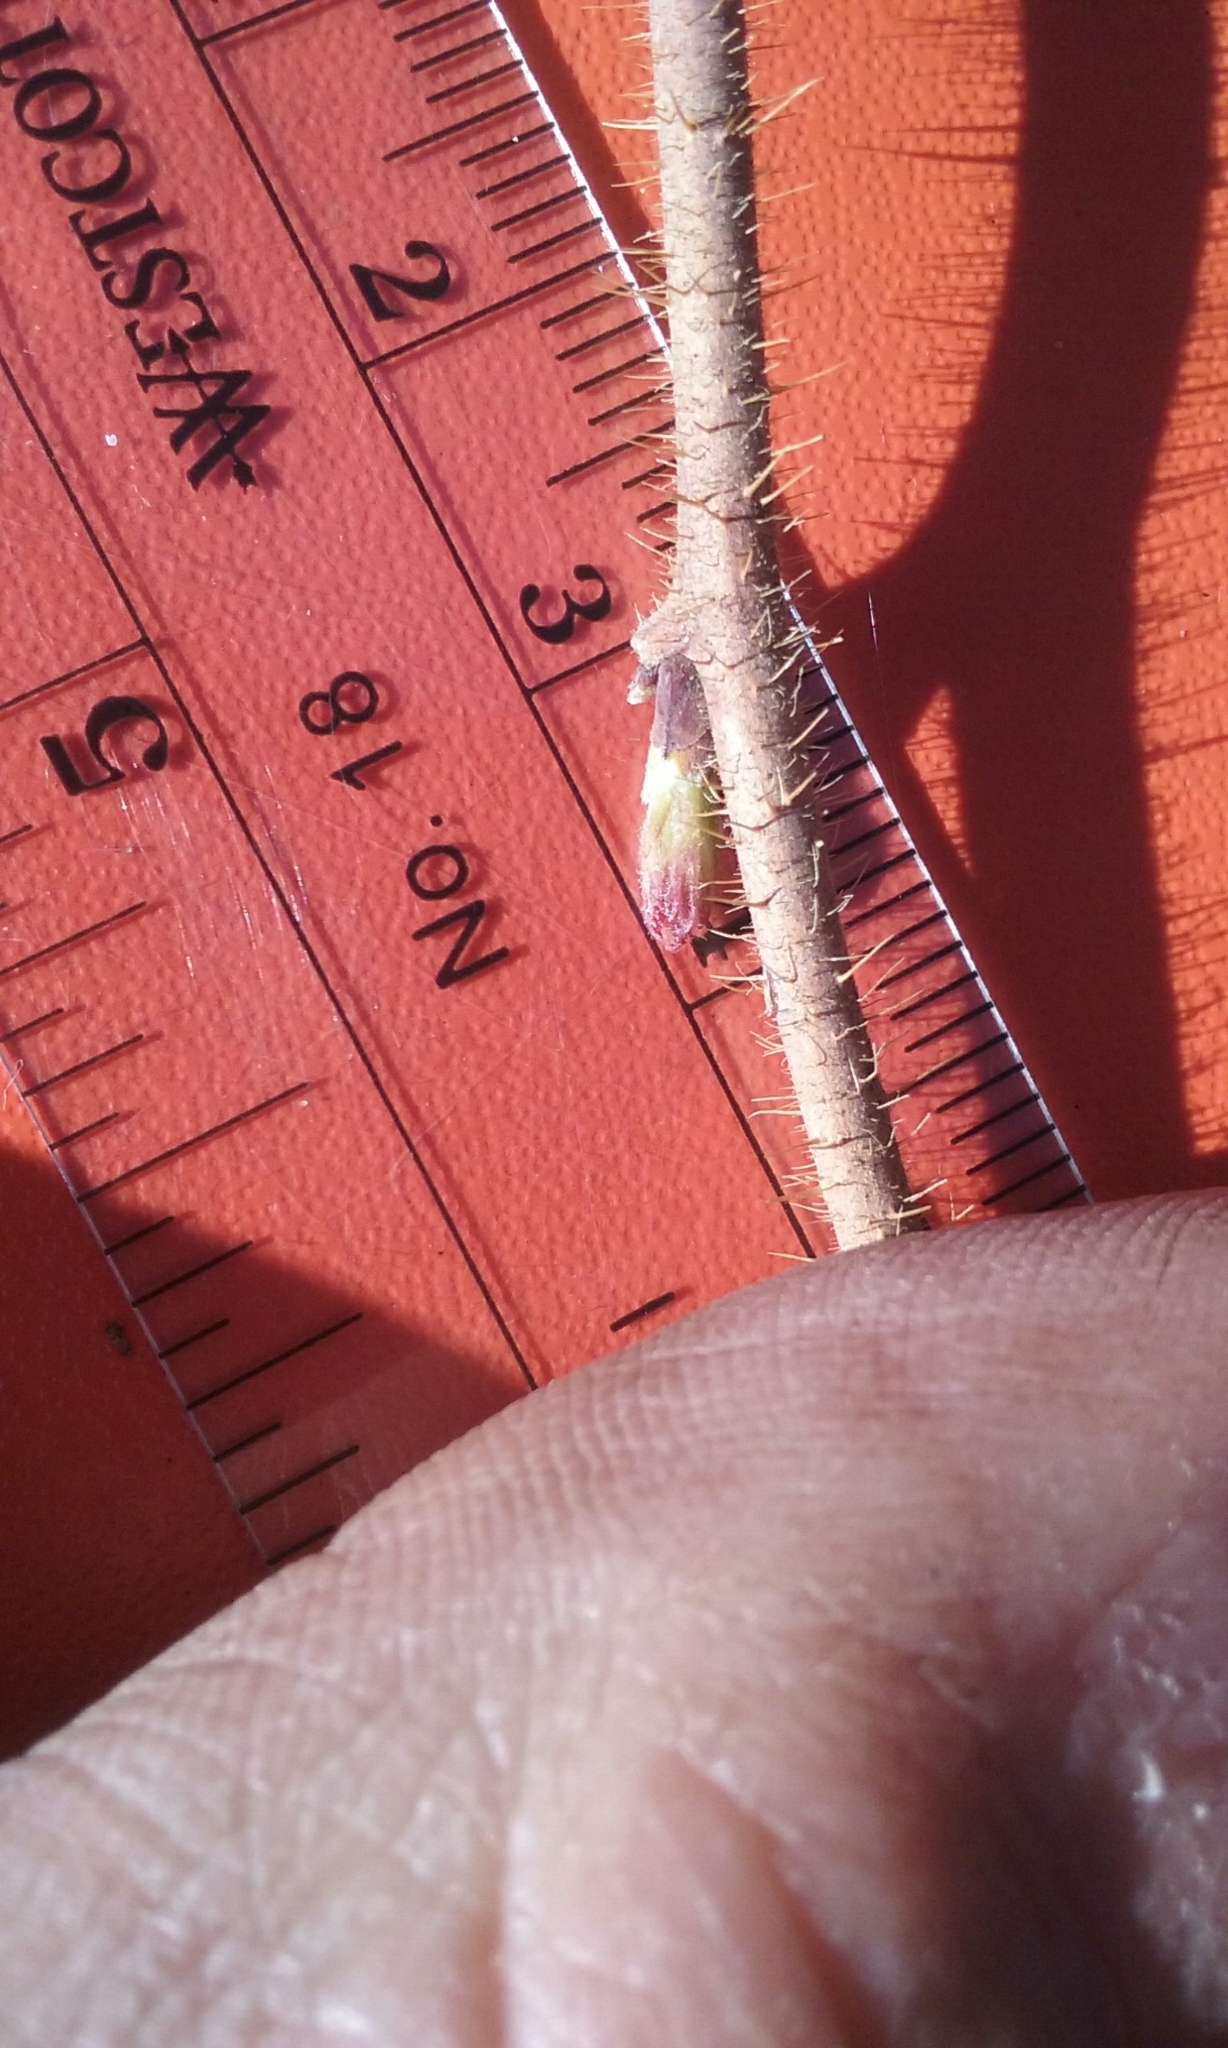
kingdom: Plantae
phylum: Tracheophyta
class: Magnoliopsida
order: Rosales
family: Rosaceae
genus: Rubus
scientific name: Rubus idaeus
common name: Raspberry
